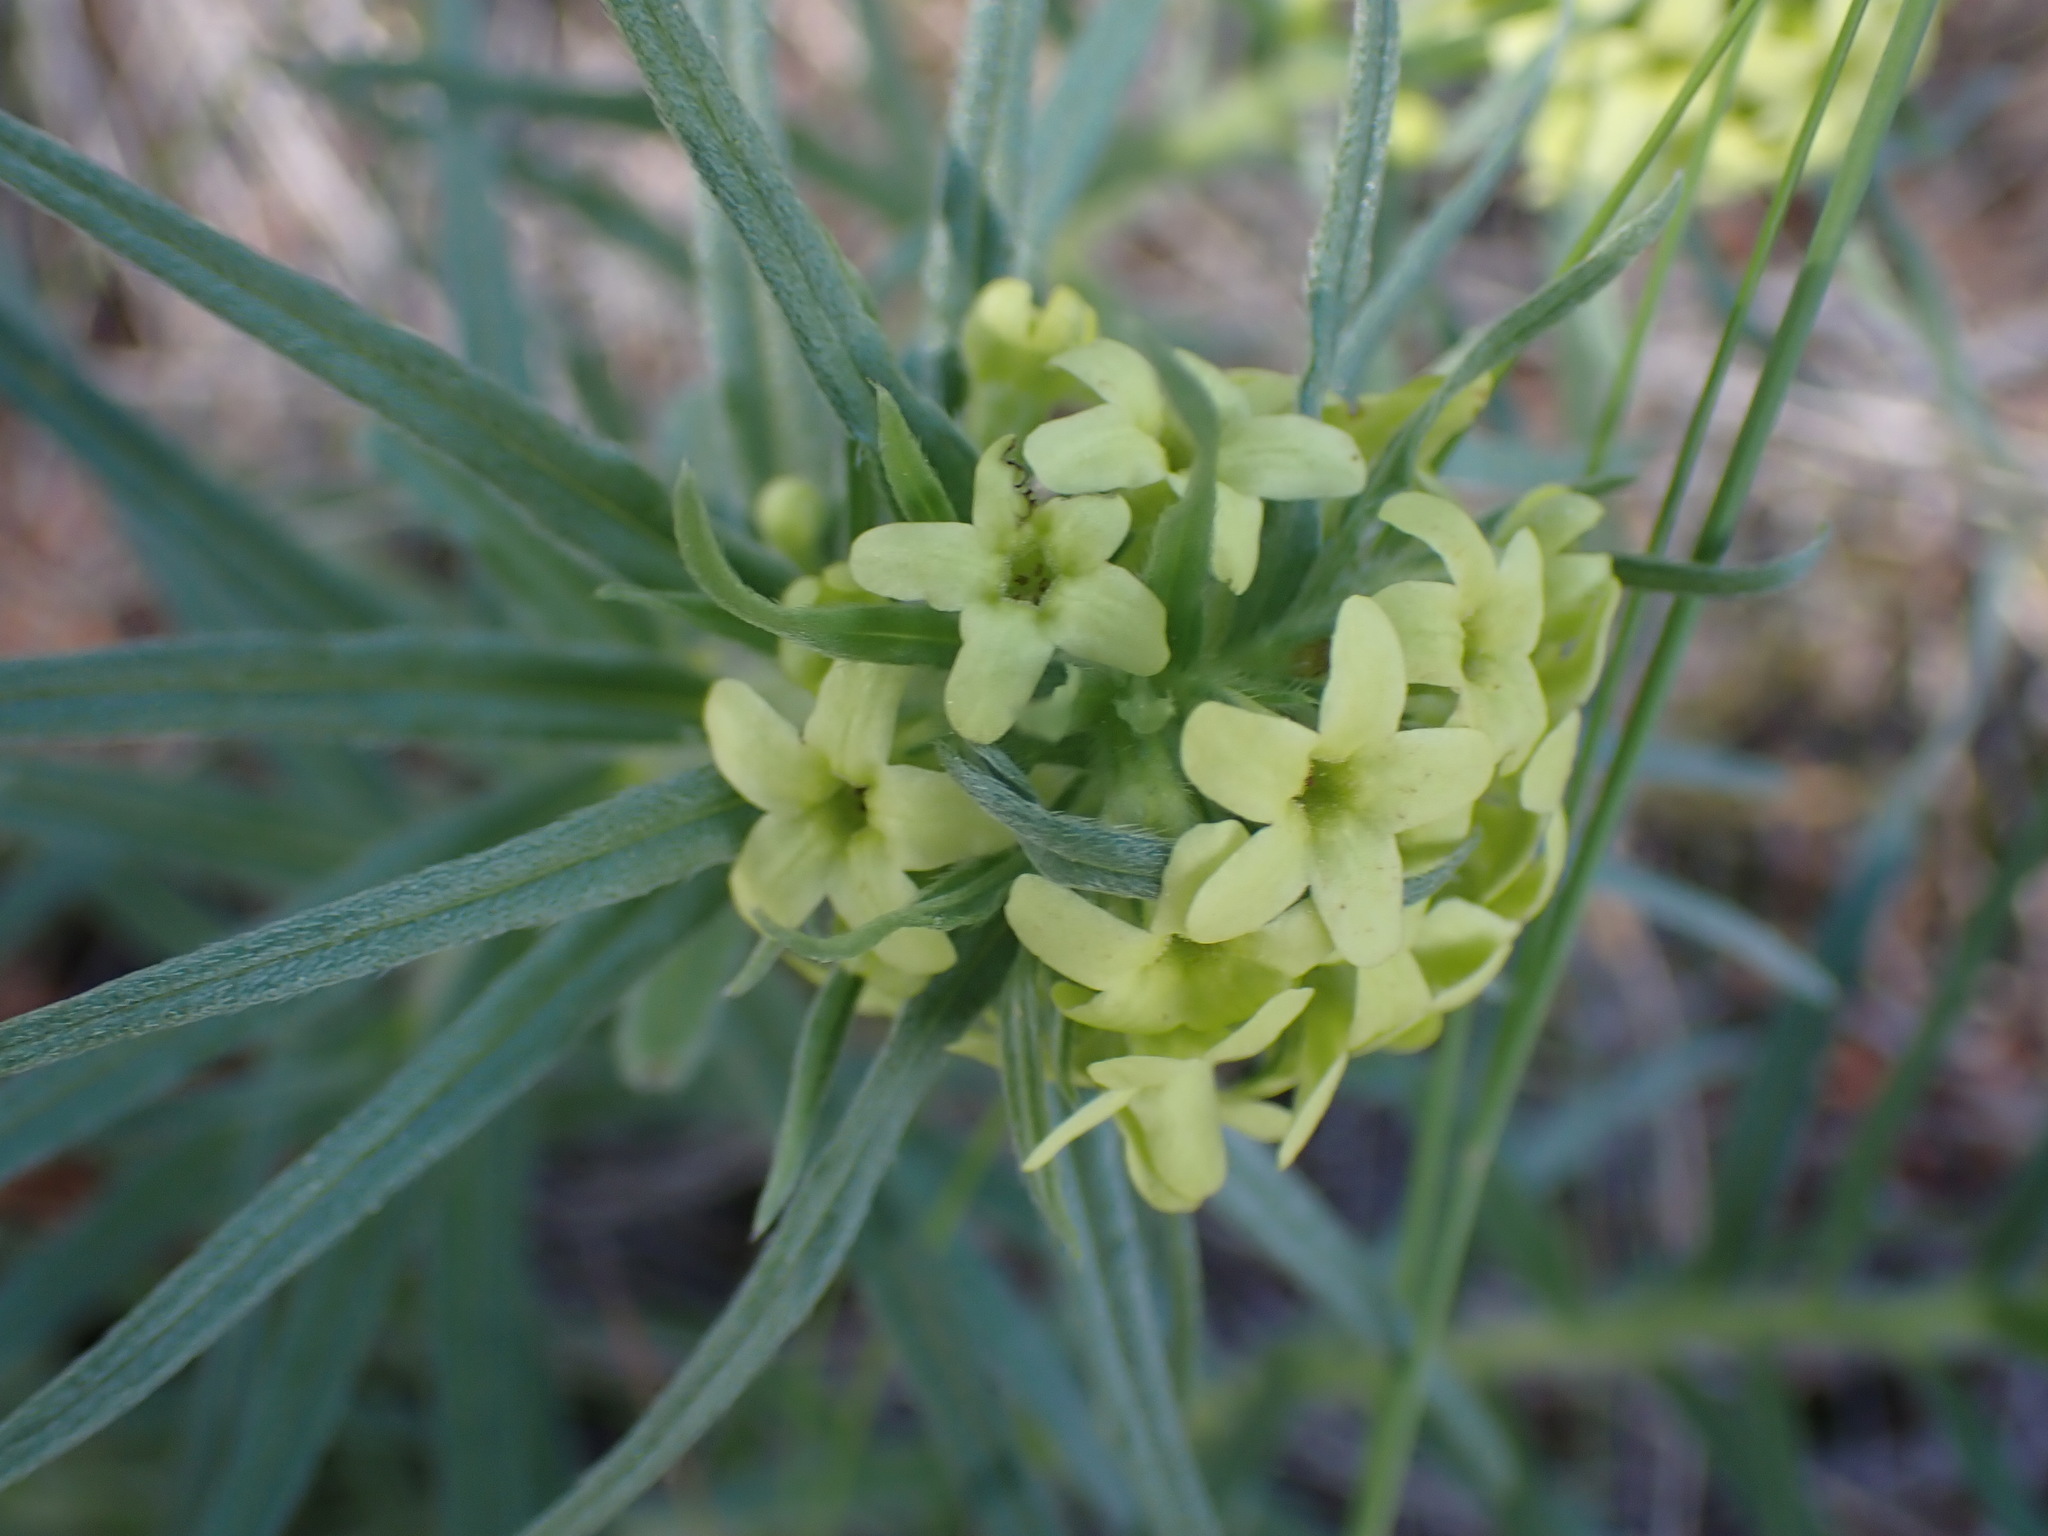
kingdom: Plantae
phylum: Tracheophyta
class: Magnoliopsida
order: Boraginales
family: Boraginaceae
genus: Lithospermum
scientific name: Lithospermum ruderale
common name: Western gromwell
